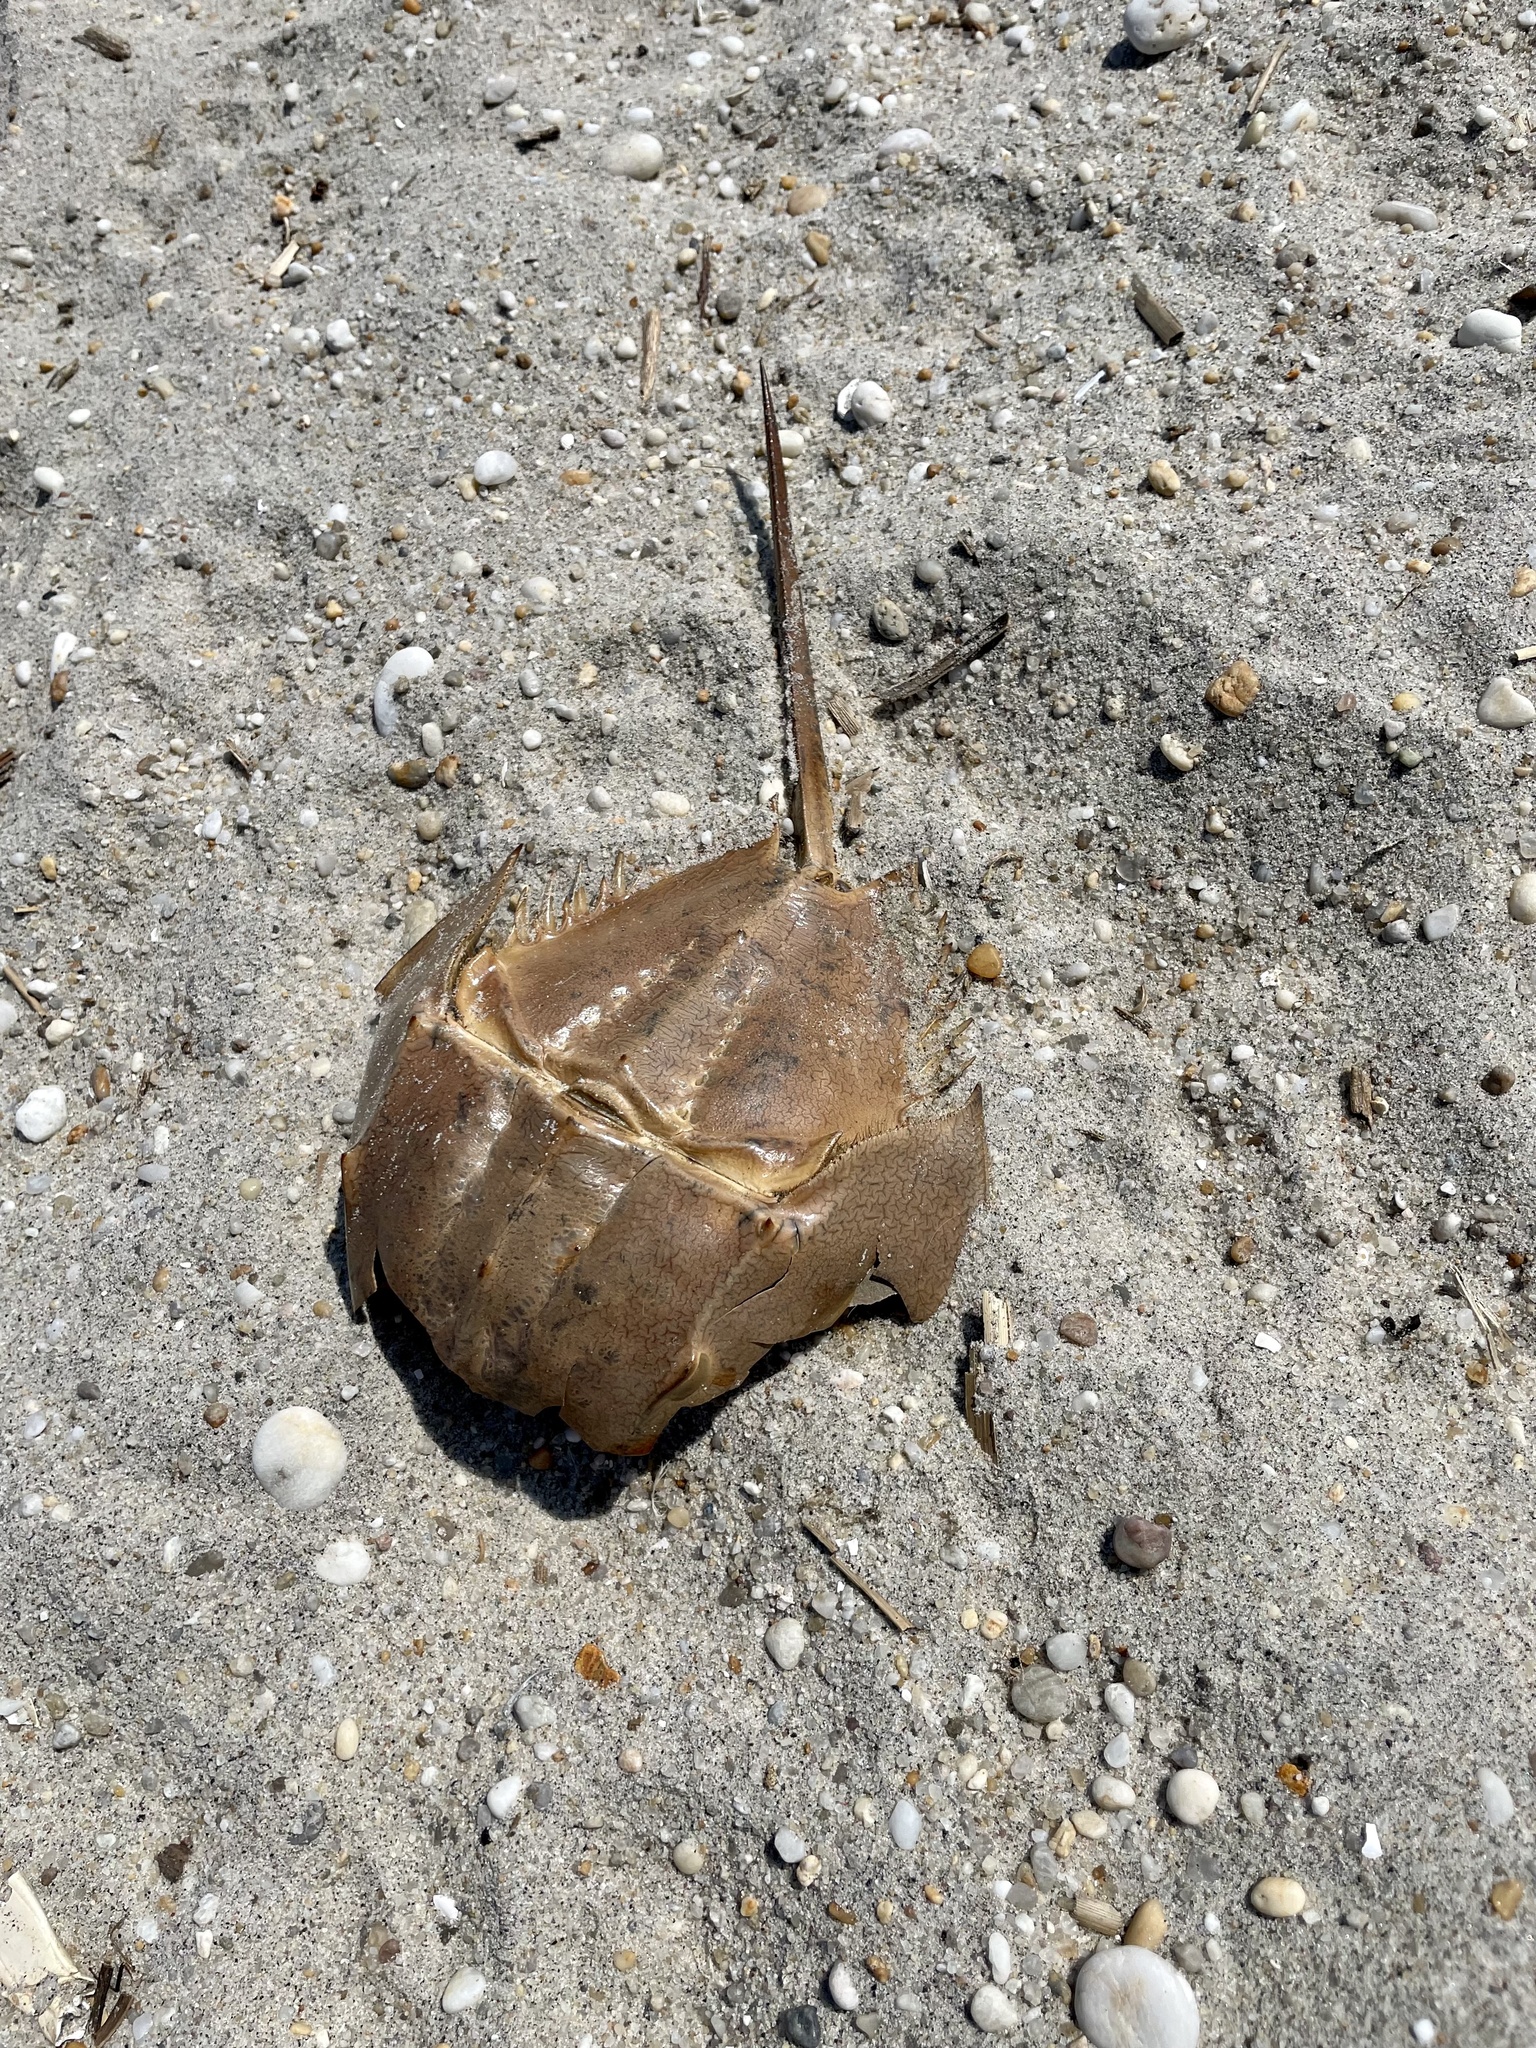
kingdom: Animalia
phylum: Arthropoda
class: Merostomata
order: Xiphosurida
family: Limulidae
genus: Limulus
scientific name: Limulus polyphemus
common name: Horseshoe crab
